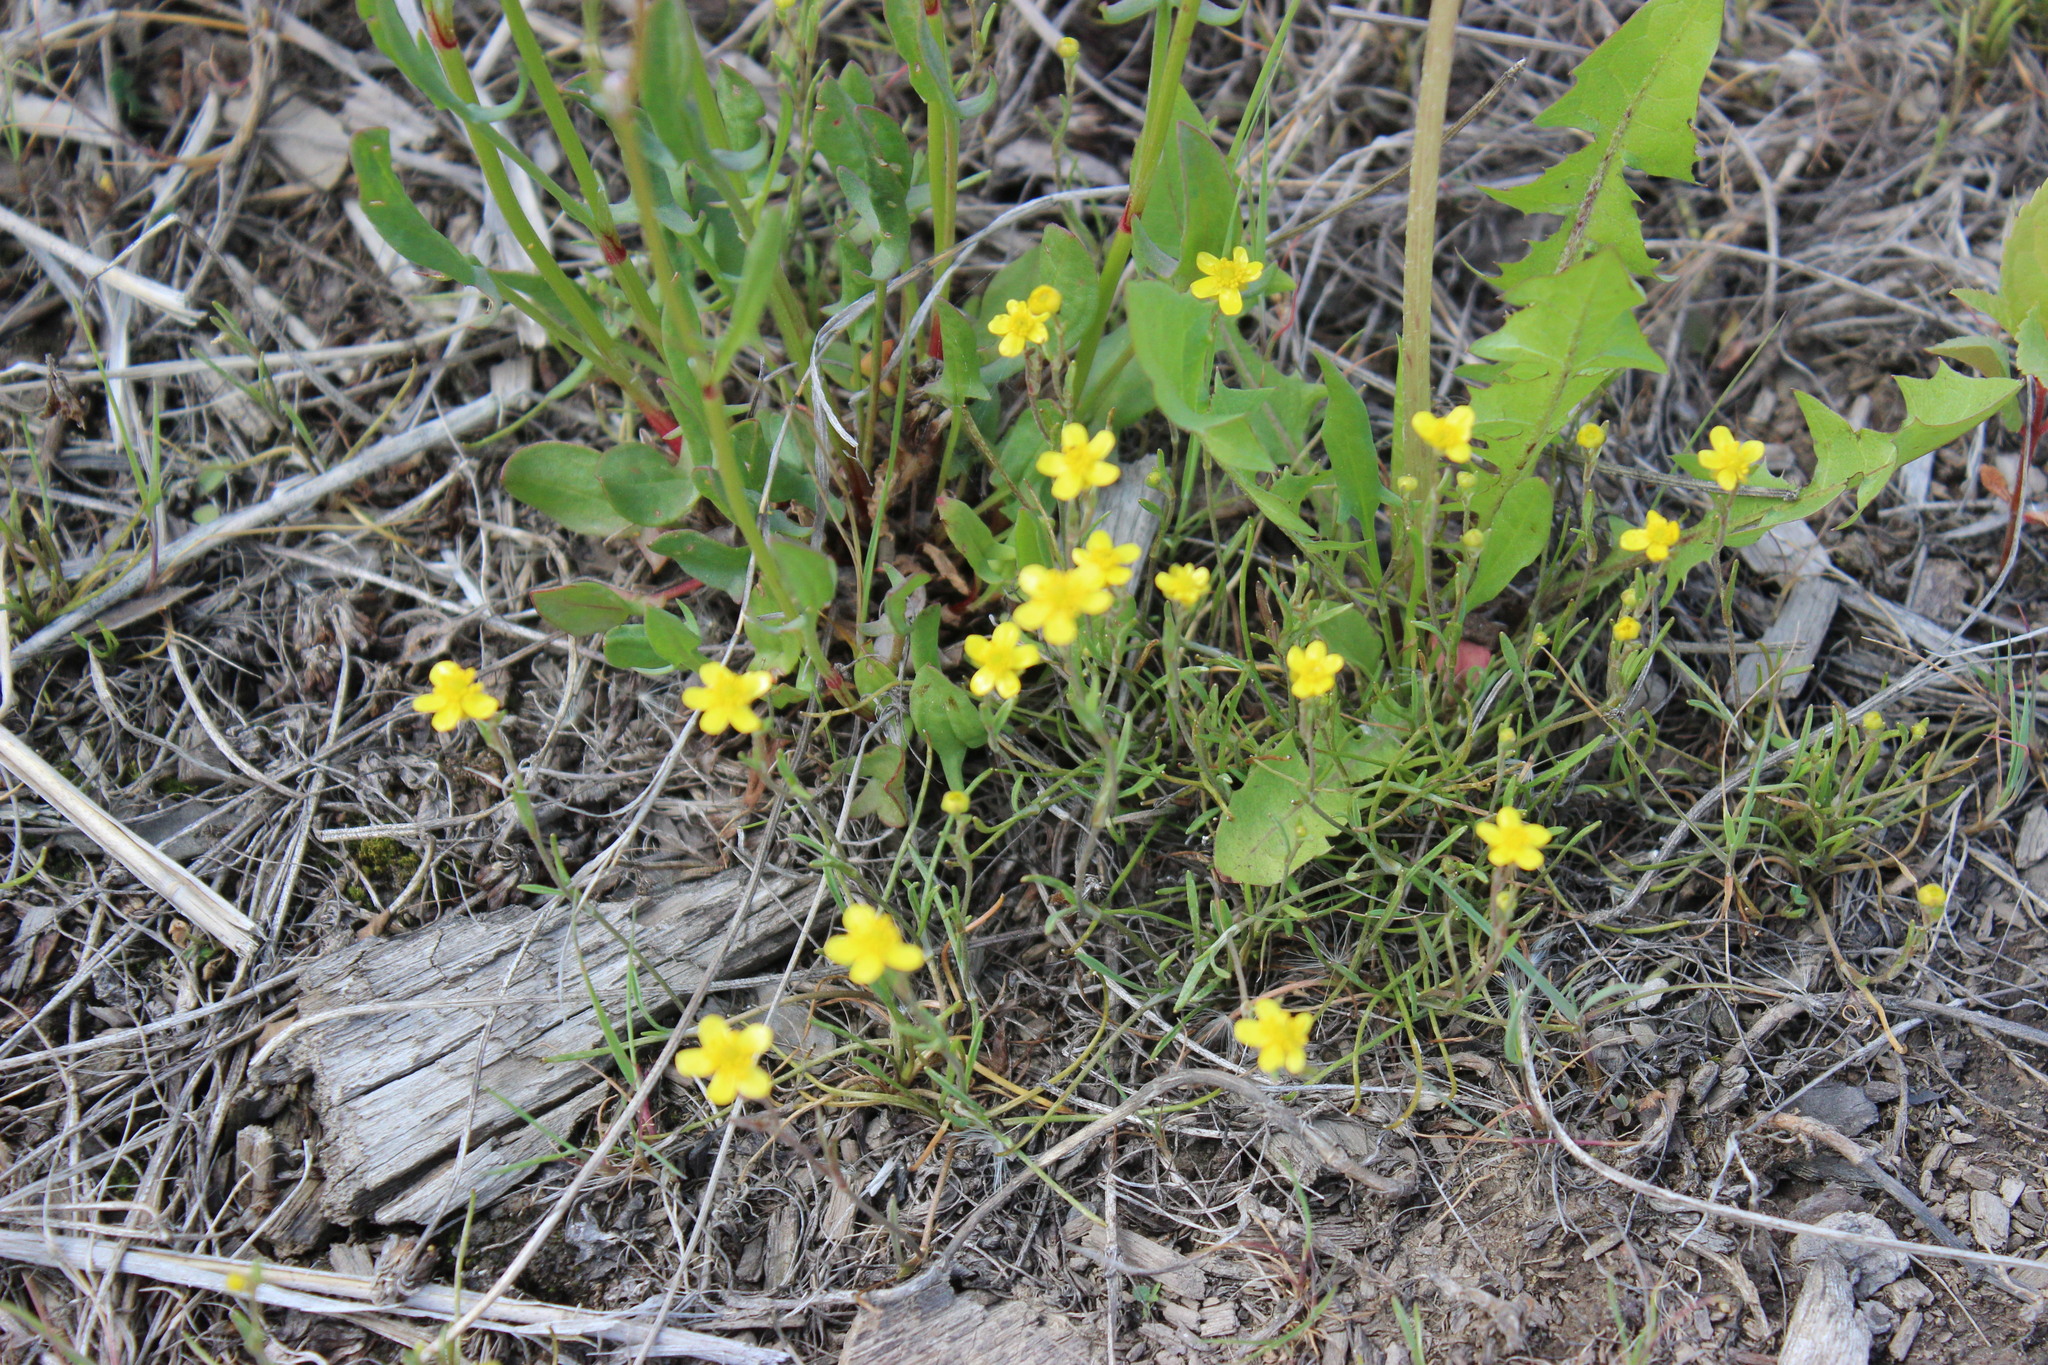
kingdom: Plantae
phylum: Tracheophyta
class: Magnoliopsida
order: Ranunculales
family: Ranunculaceae
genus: Ranunculus
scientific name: Ranunculus reptans
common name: Creeping spearwort
